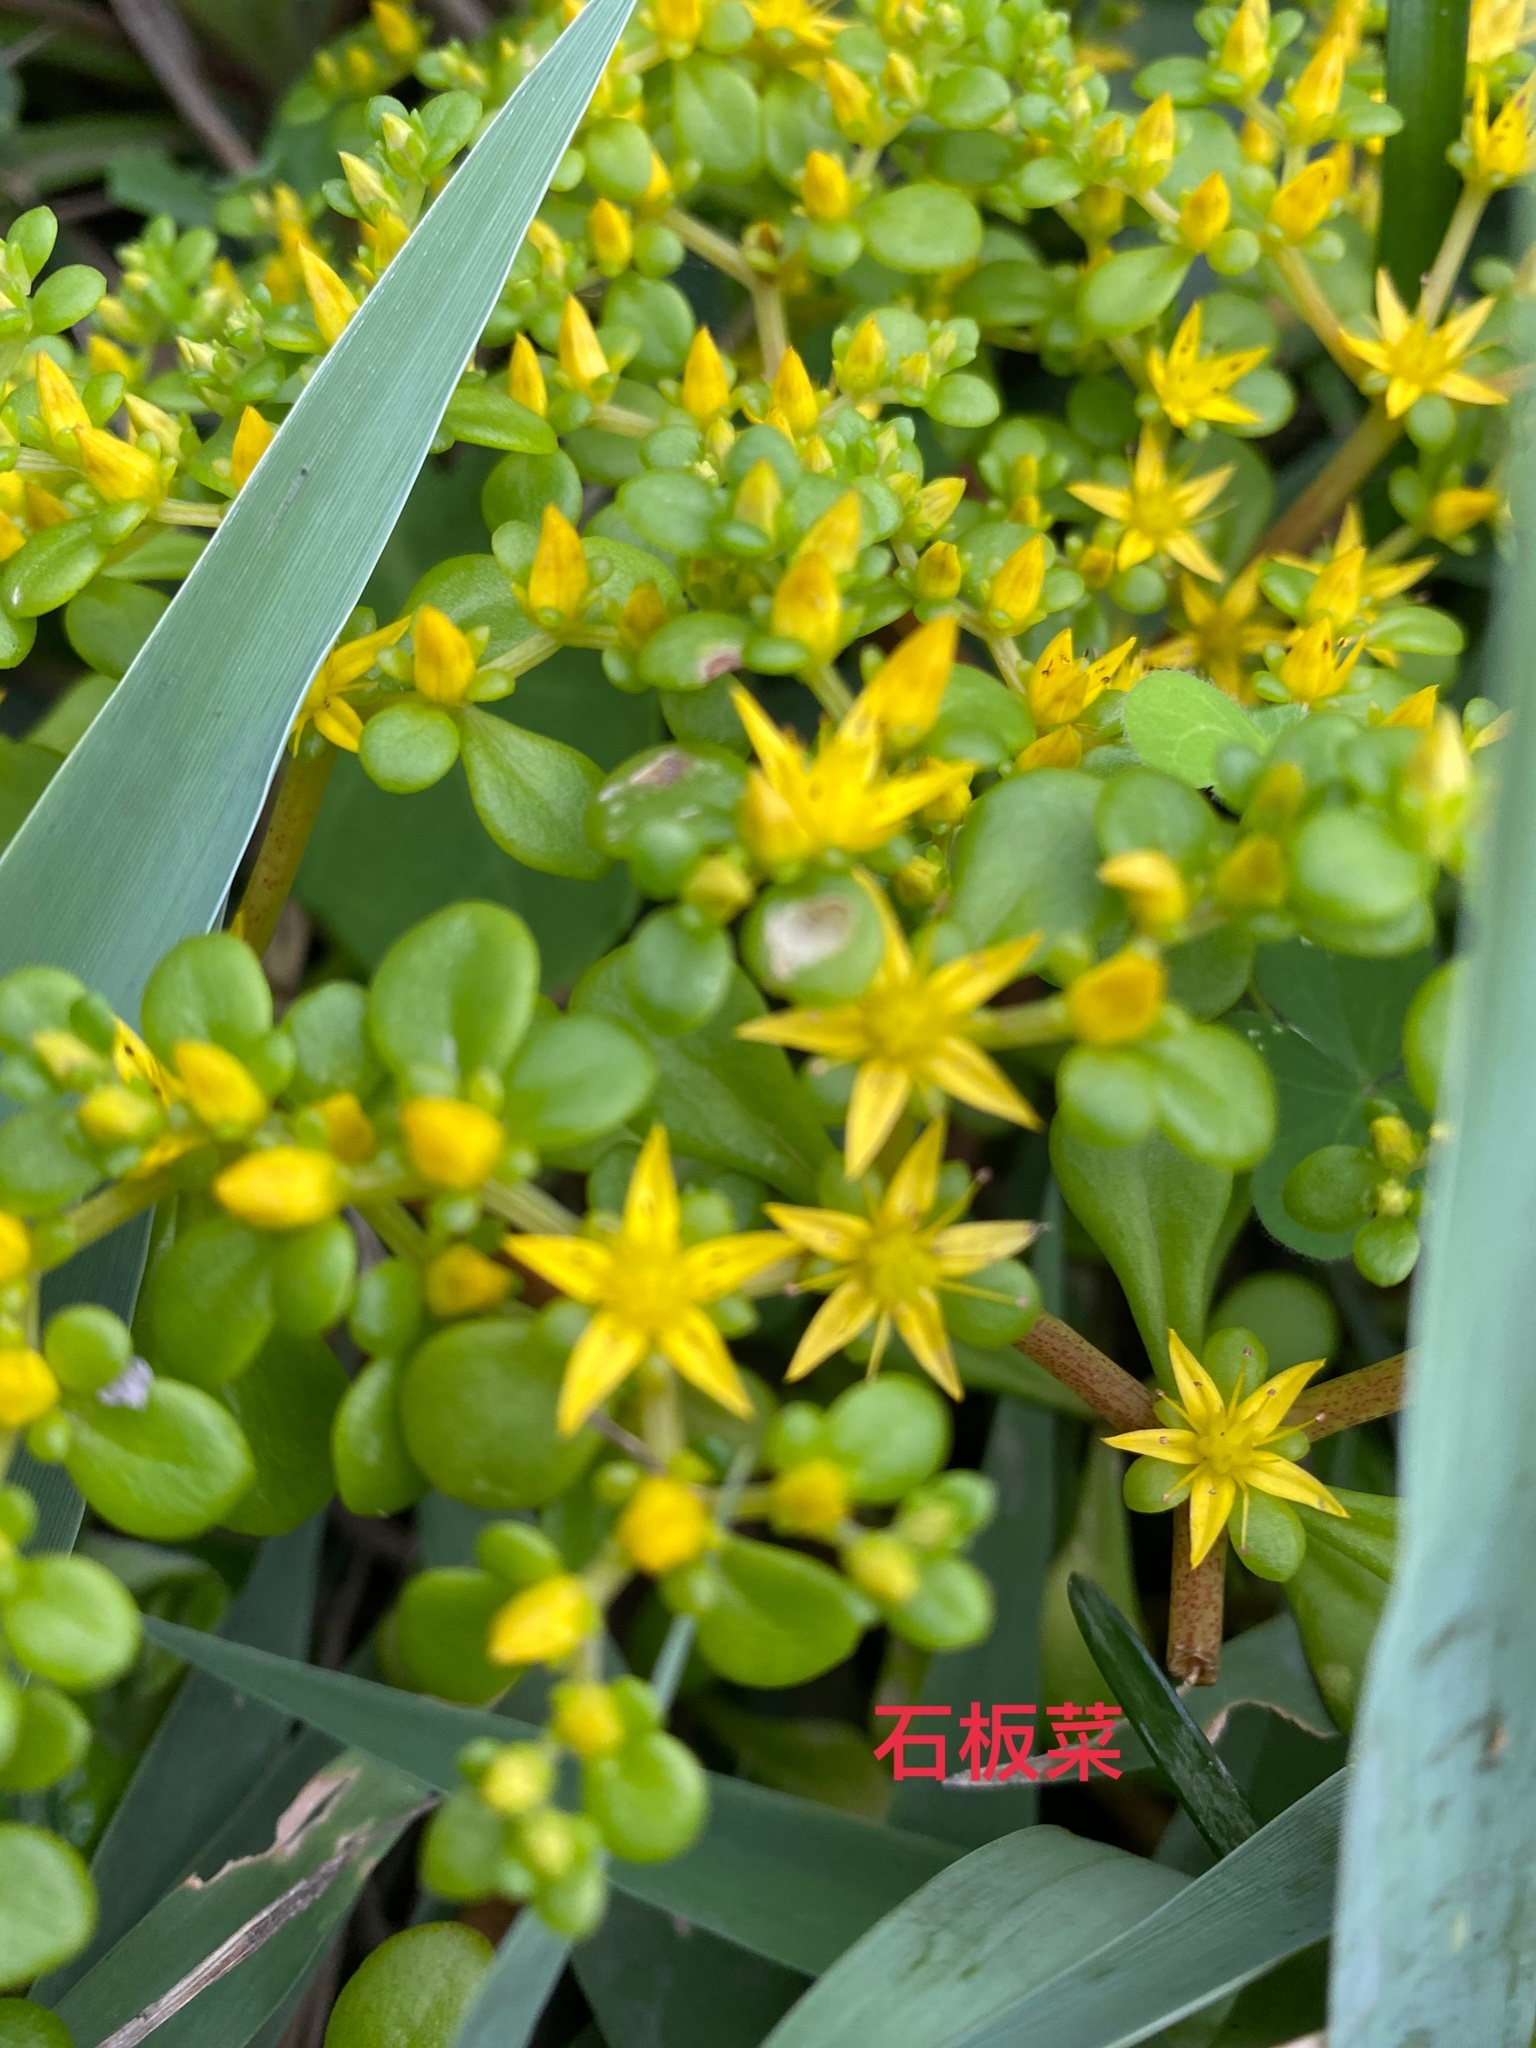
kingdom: Plantae
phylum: Tracheophyta
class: Magnoliopsida
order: Saxifragales
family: Crassulaceae
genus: Sedum
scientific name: Sedum formosanum
